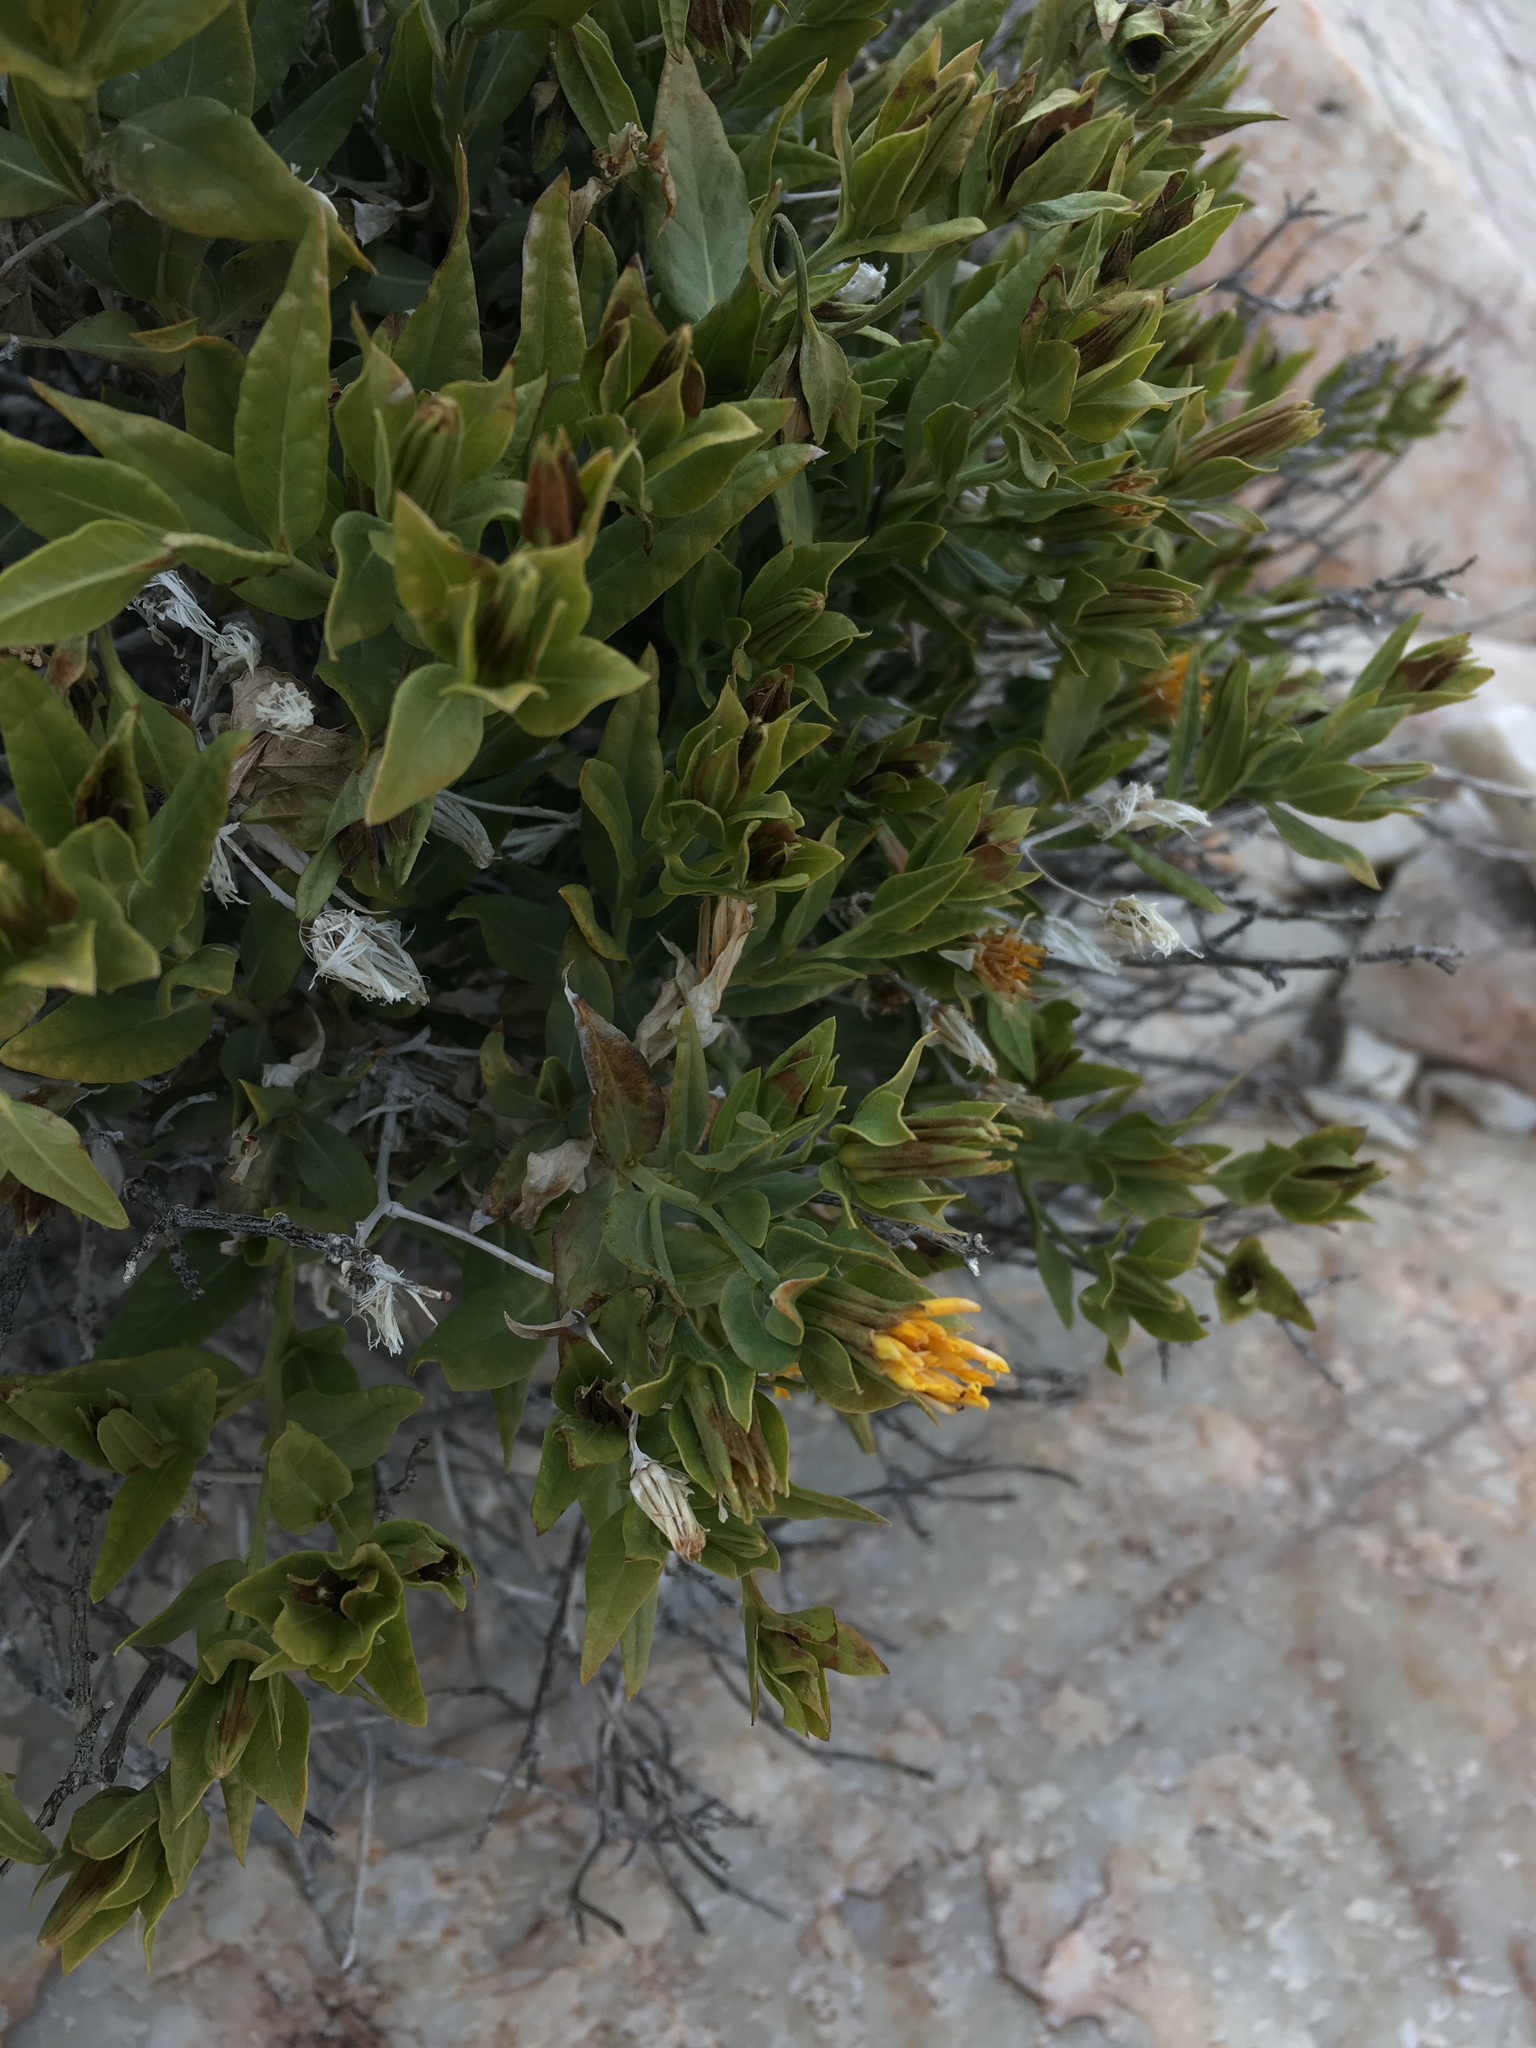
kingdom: Plantae
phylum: Tracheophyta
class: Magnoliopsida
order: Asterales
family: Asteraceae
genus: Trixis
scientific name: Trixis californica
